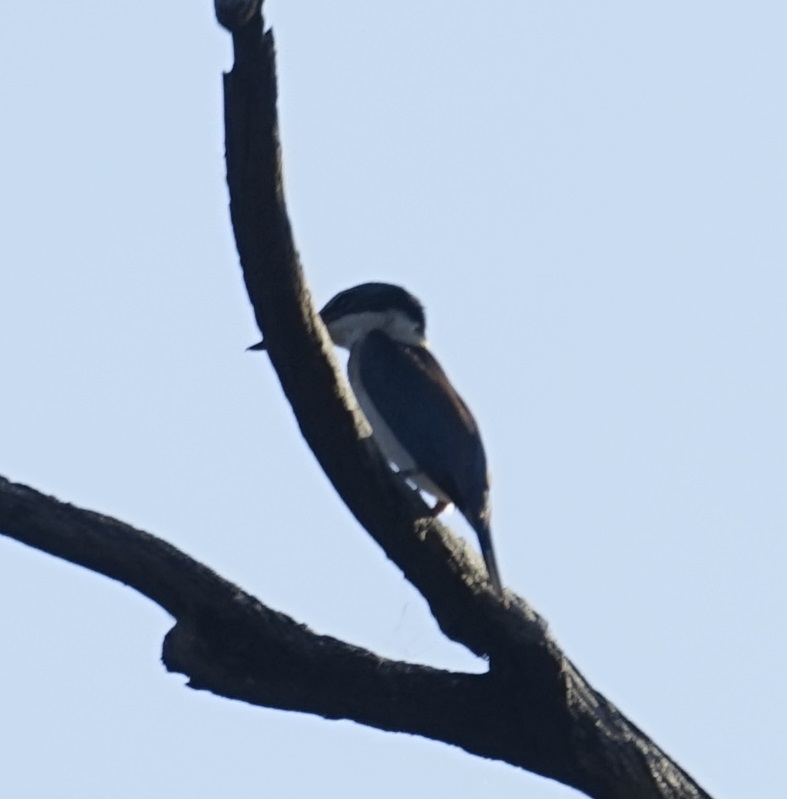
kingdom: Animalia
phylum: Chordata
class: Aves
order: Coraciiformes
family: Alcedinidae
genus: Todiramphus
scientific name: Todiramphus sanctus
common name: Sacred kingfisher
